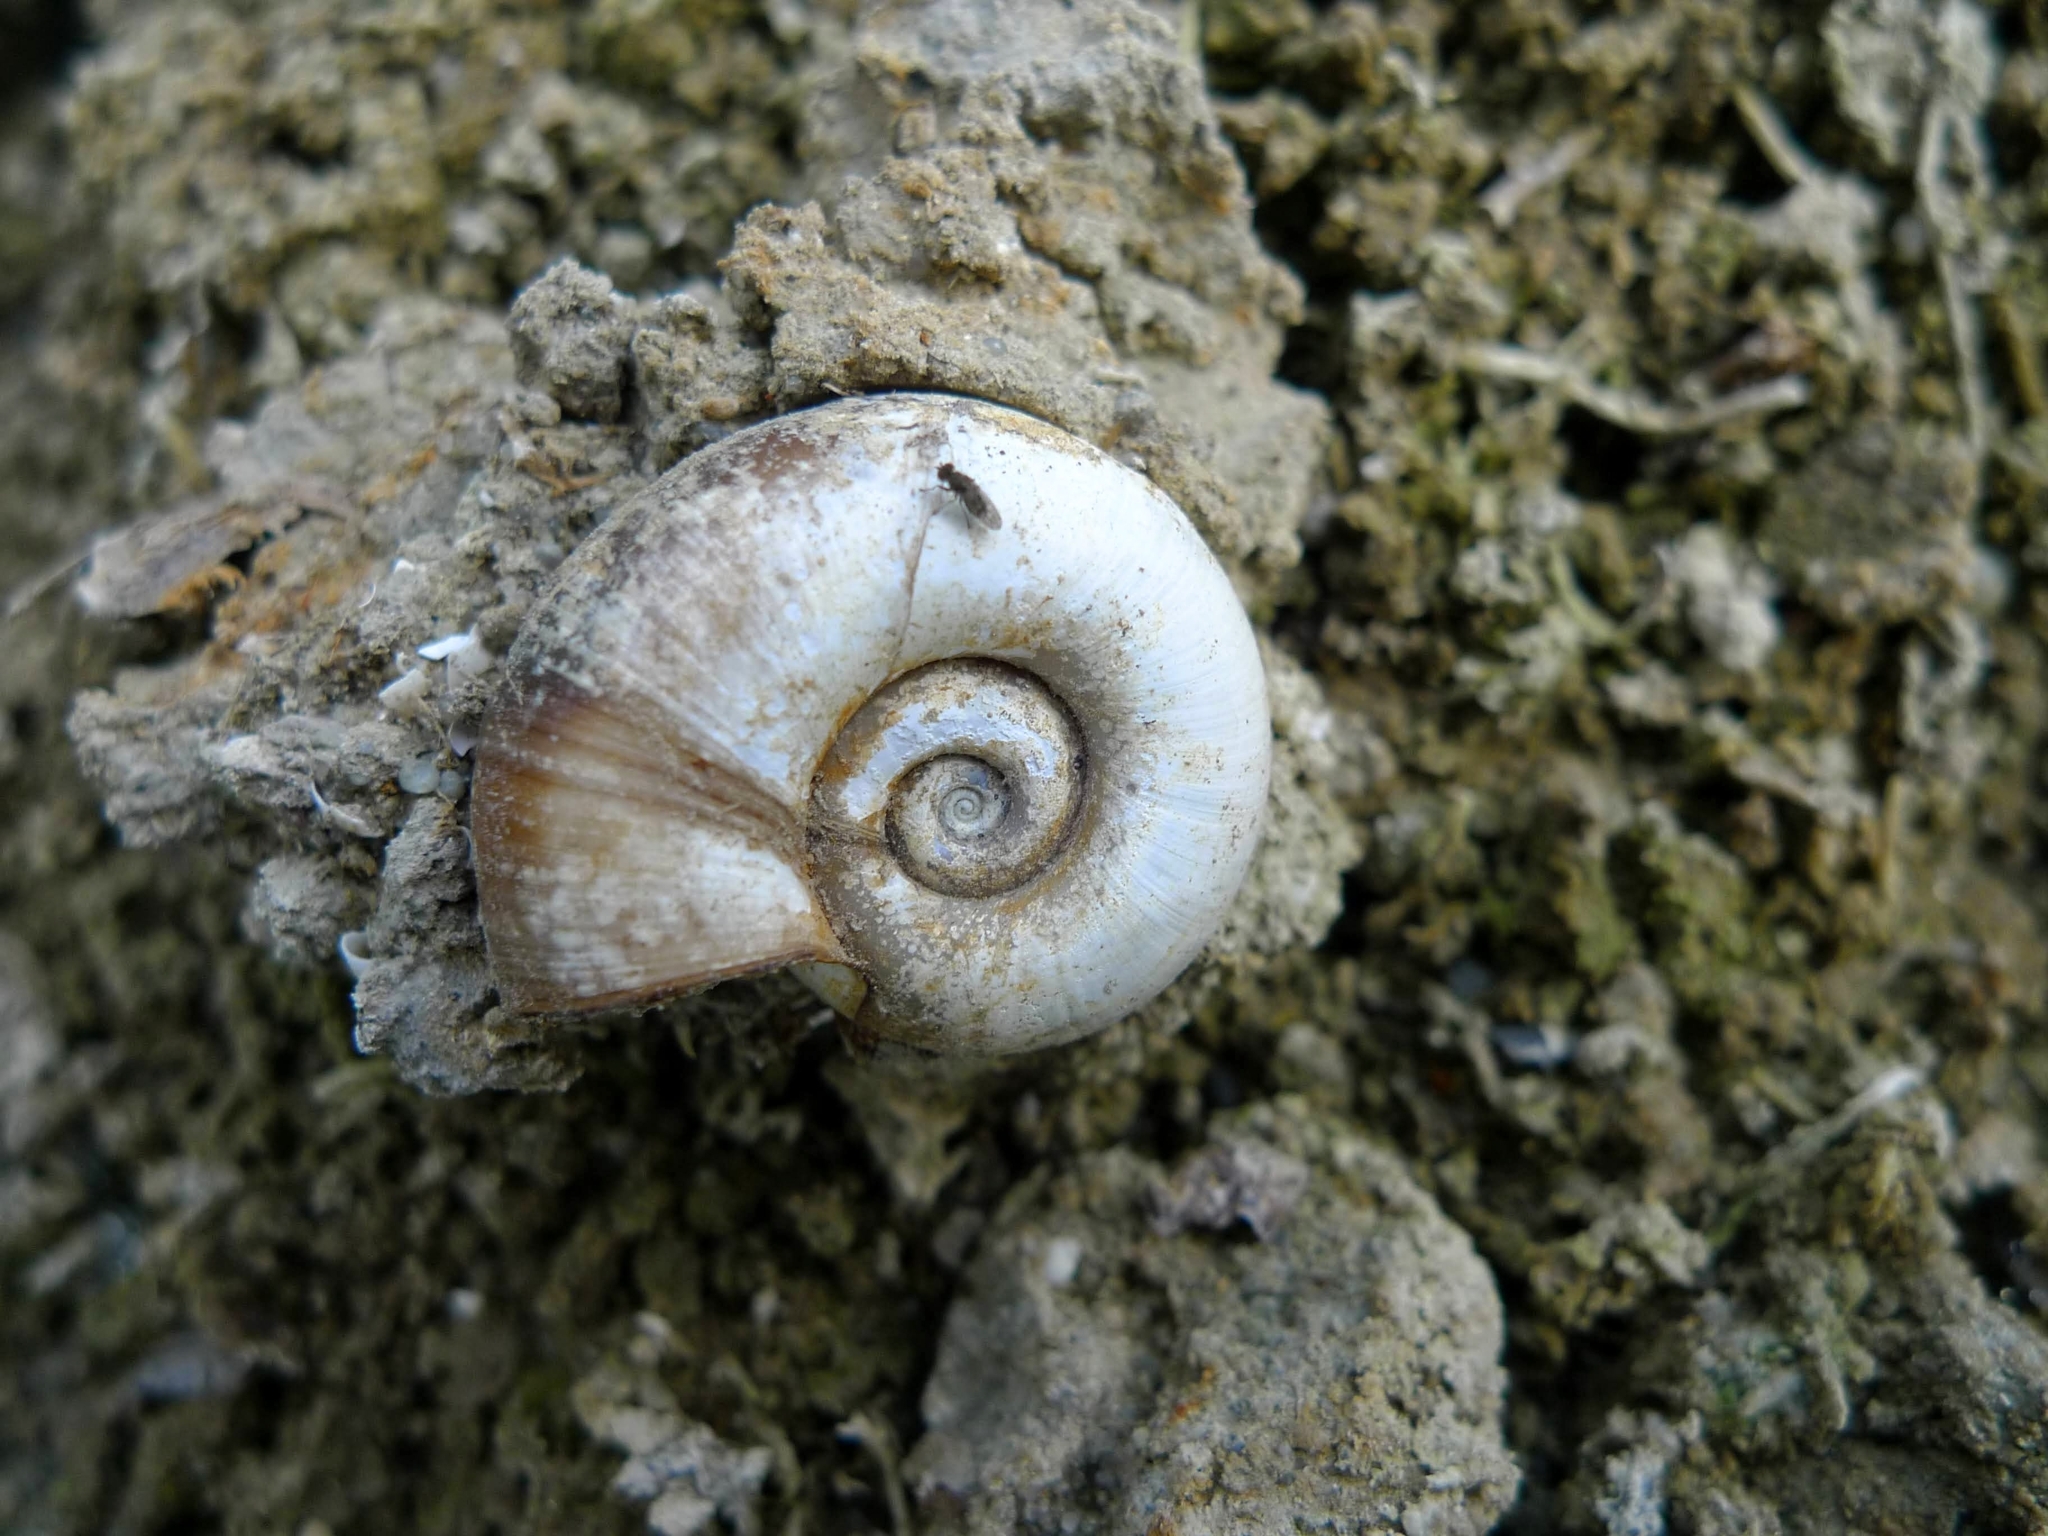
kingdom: Animalia
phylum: Mollusca
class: Gastropoda
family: Planorbidae
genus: Planorbarius
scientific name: Planorbarius corneus
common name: Great ramshorn
